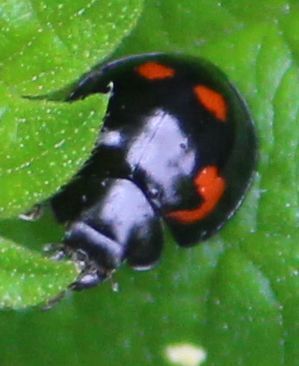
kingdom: Animalia
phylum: Arthropoda
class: Insecta
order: Coleoptera
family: Coccinellidae
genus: Brumus
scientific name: Brumus quadripustulatus
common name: Ladybird beetle
